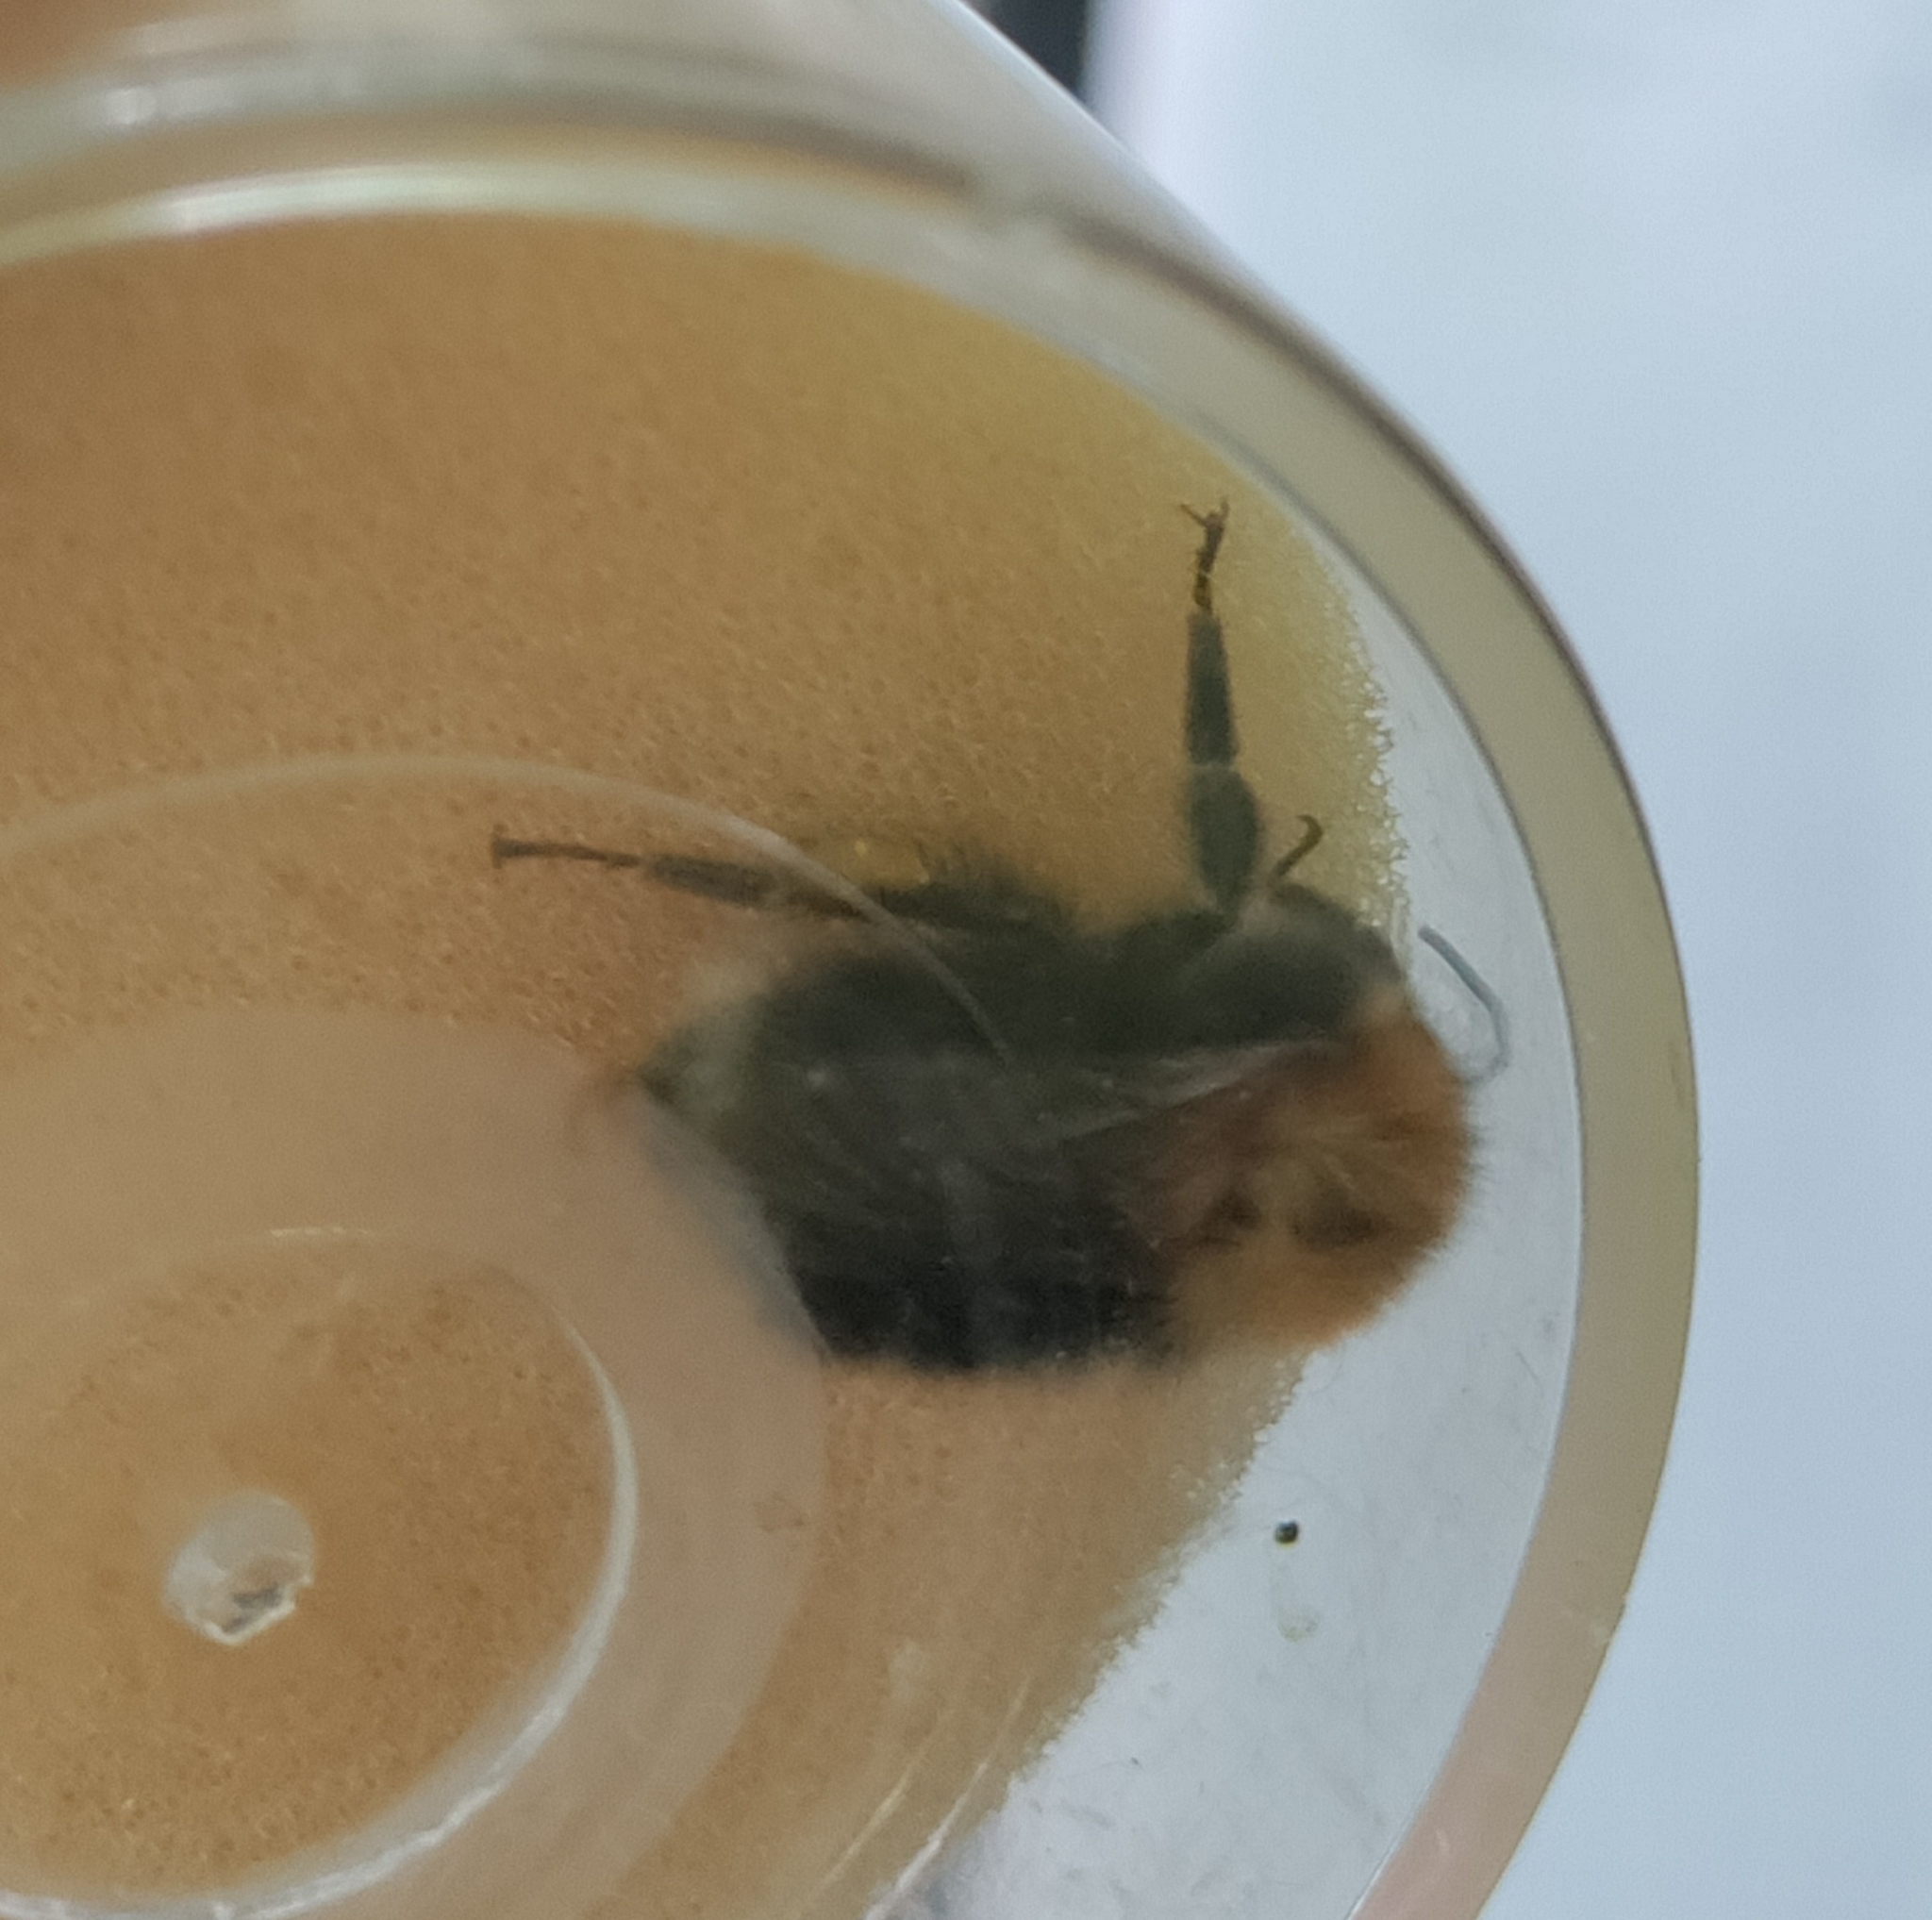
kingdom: Animalia
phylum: Arthropoda
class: Insecta
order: Hymenoptera
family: Apidae
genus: Bombus
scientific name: Bombus hypnorum
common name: New garden bumblebee
